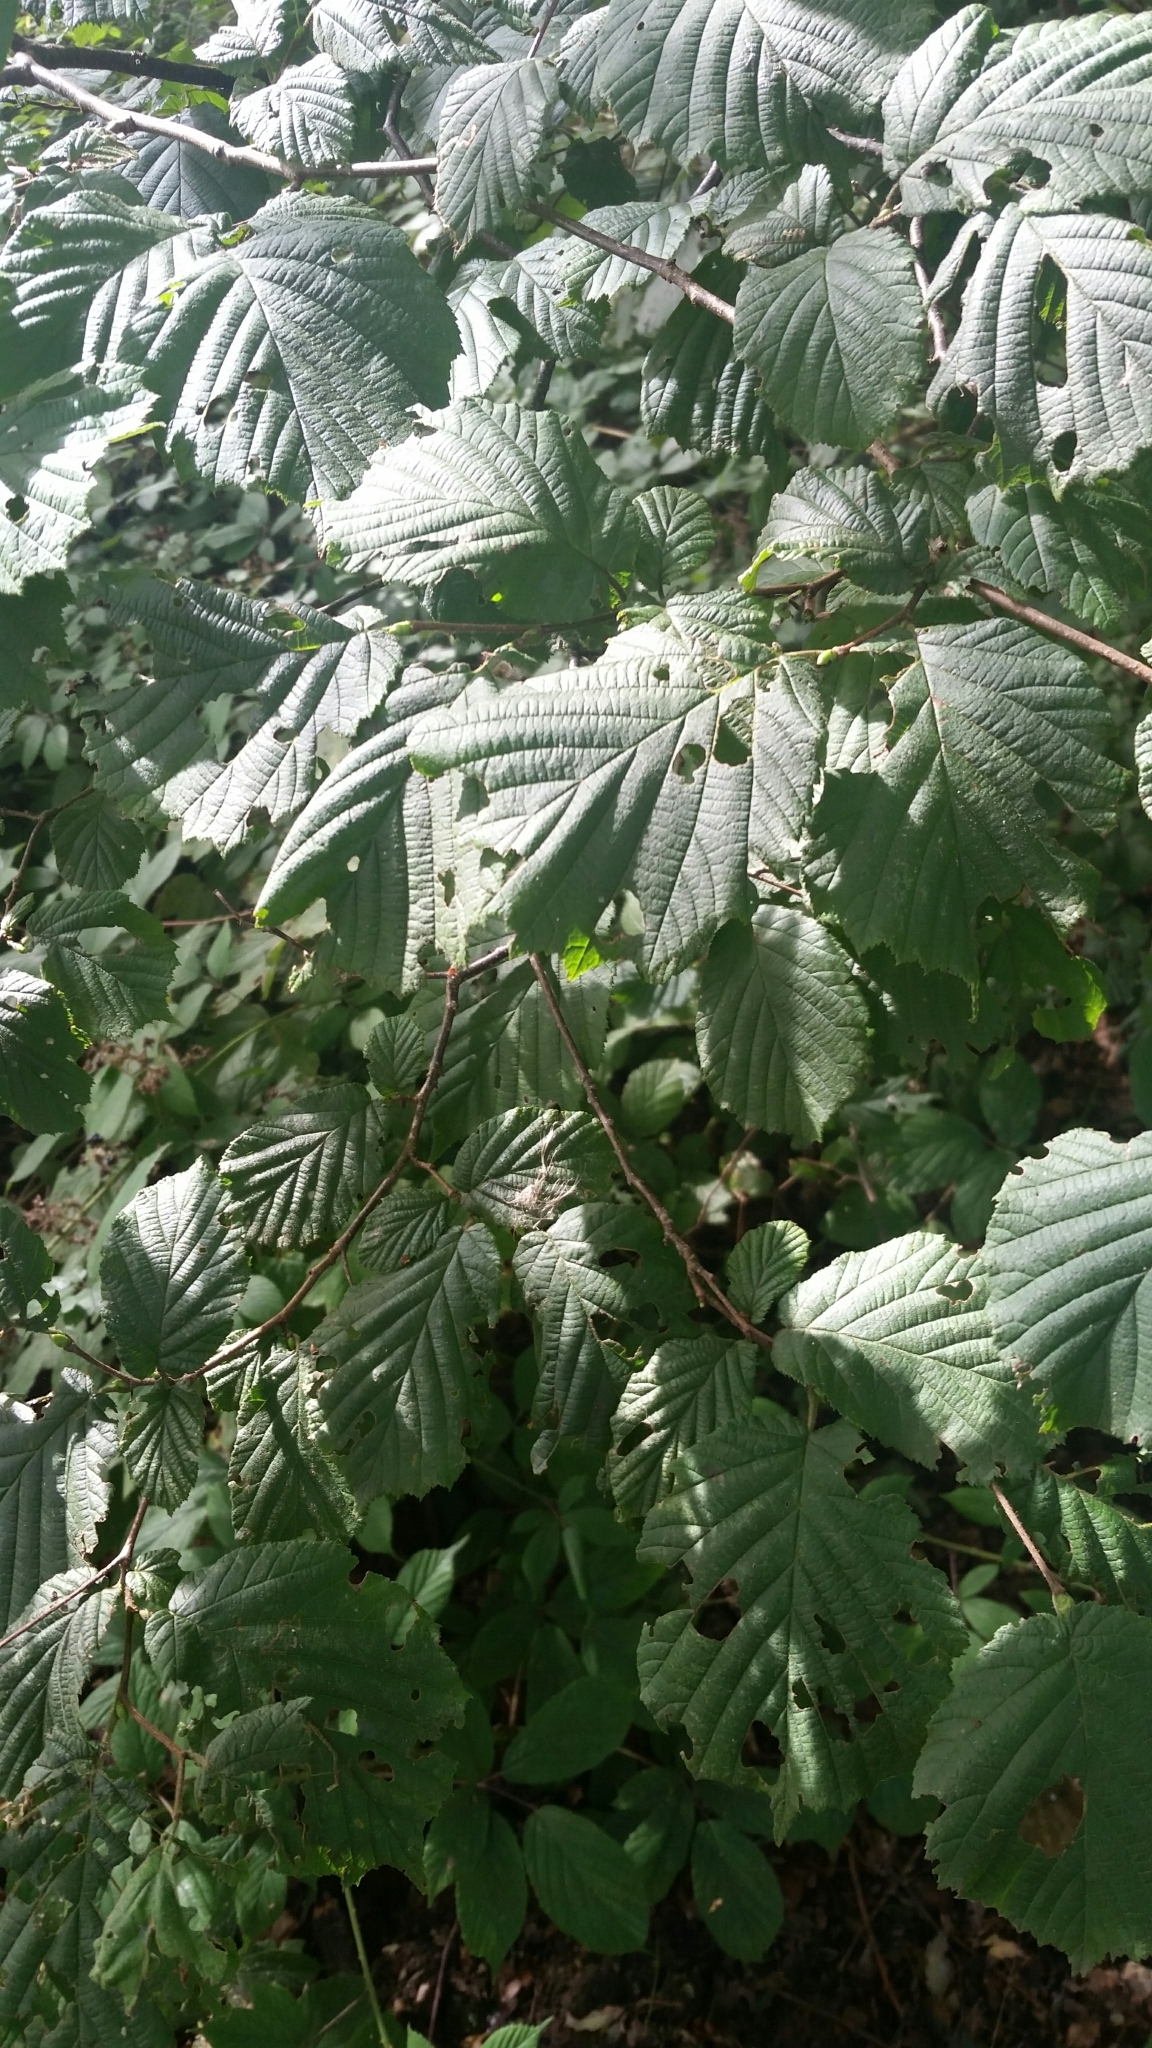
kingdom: Plantae
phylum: Tracheophyta
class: Magnoliopsida
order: Fagales
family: Betulaceae
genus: Corylus
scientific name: Corylus avellana
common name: European hazel
